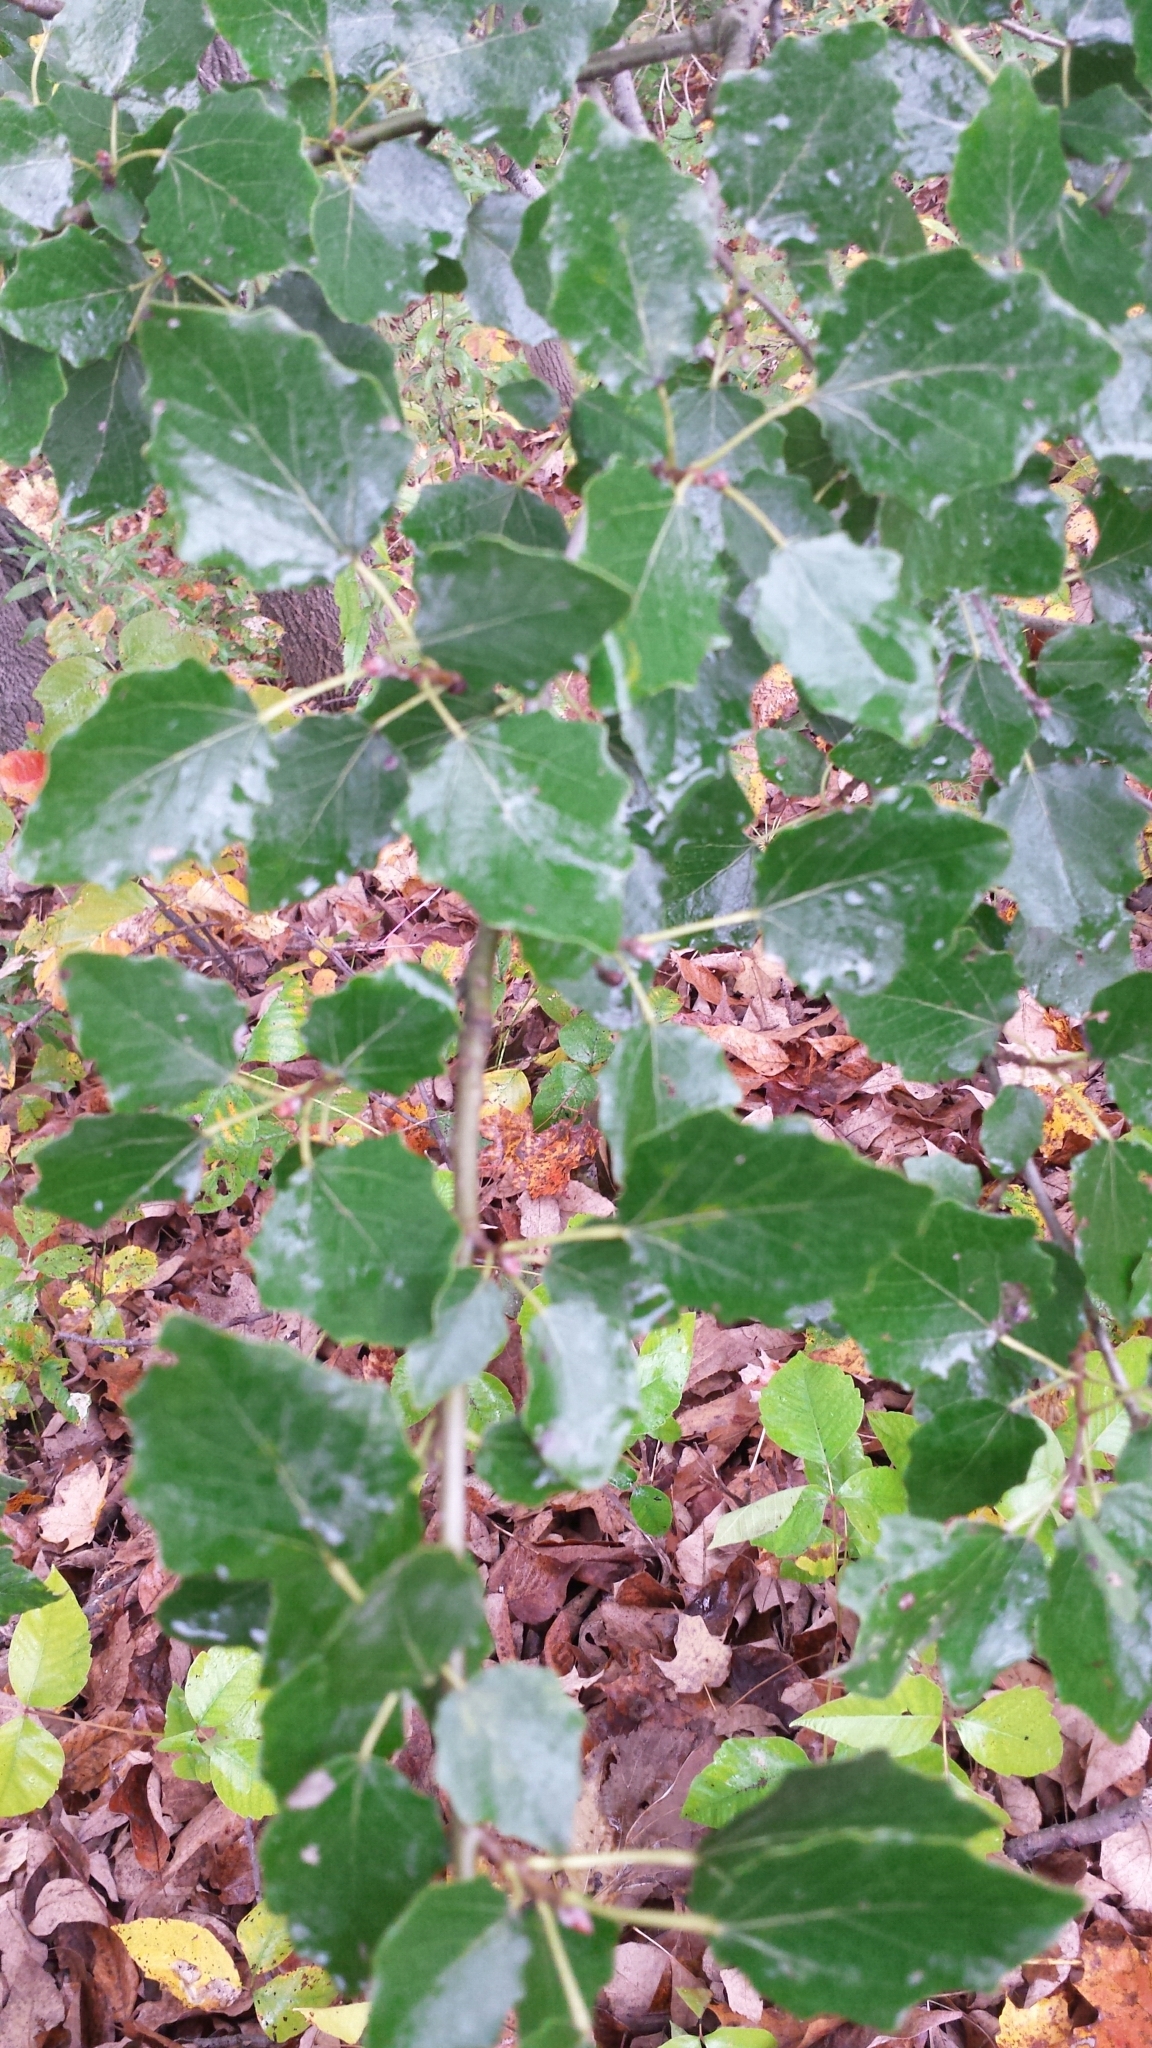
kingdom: Plantae
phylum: Tracheophyta
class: Magnoliopsida
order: Malpighiales
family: Salicaceae
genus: Populus
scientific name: Populus alba
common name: White poplar
